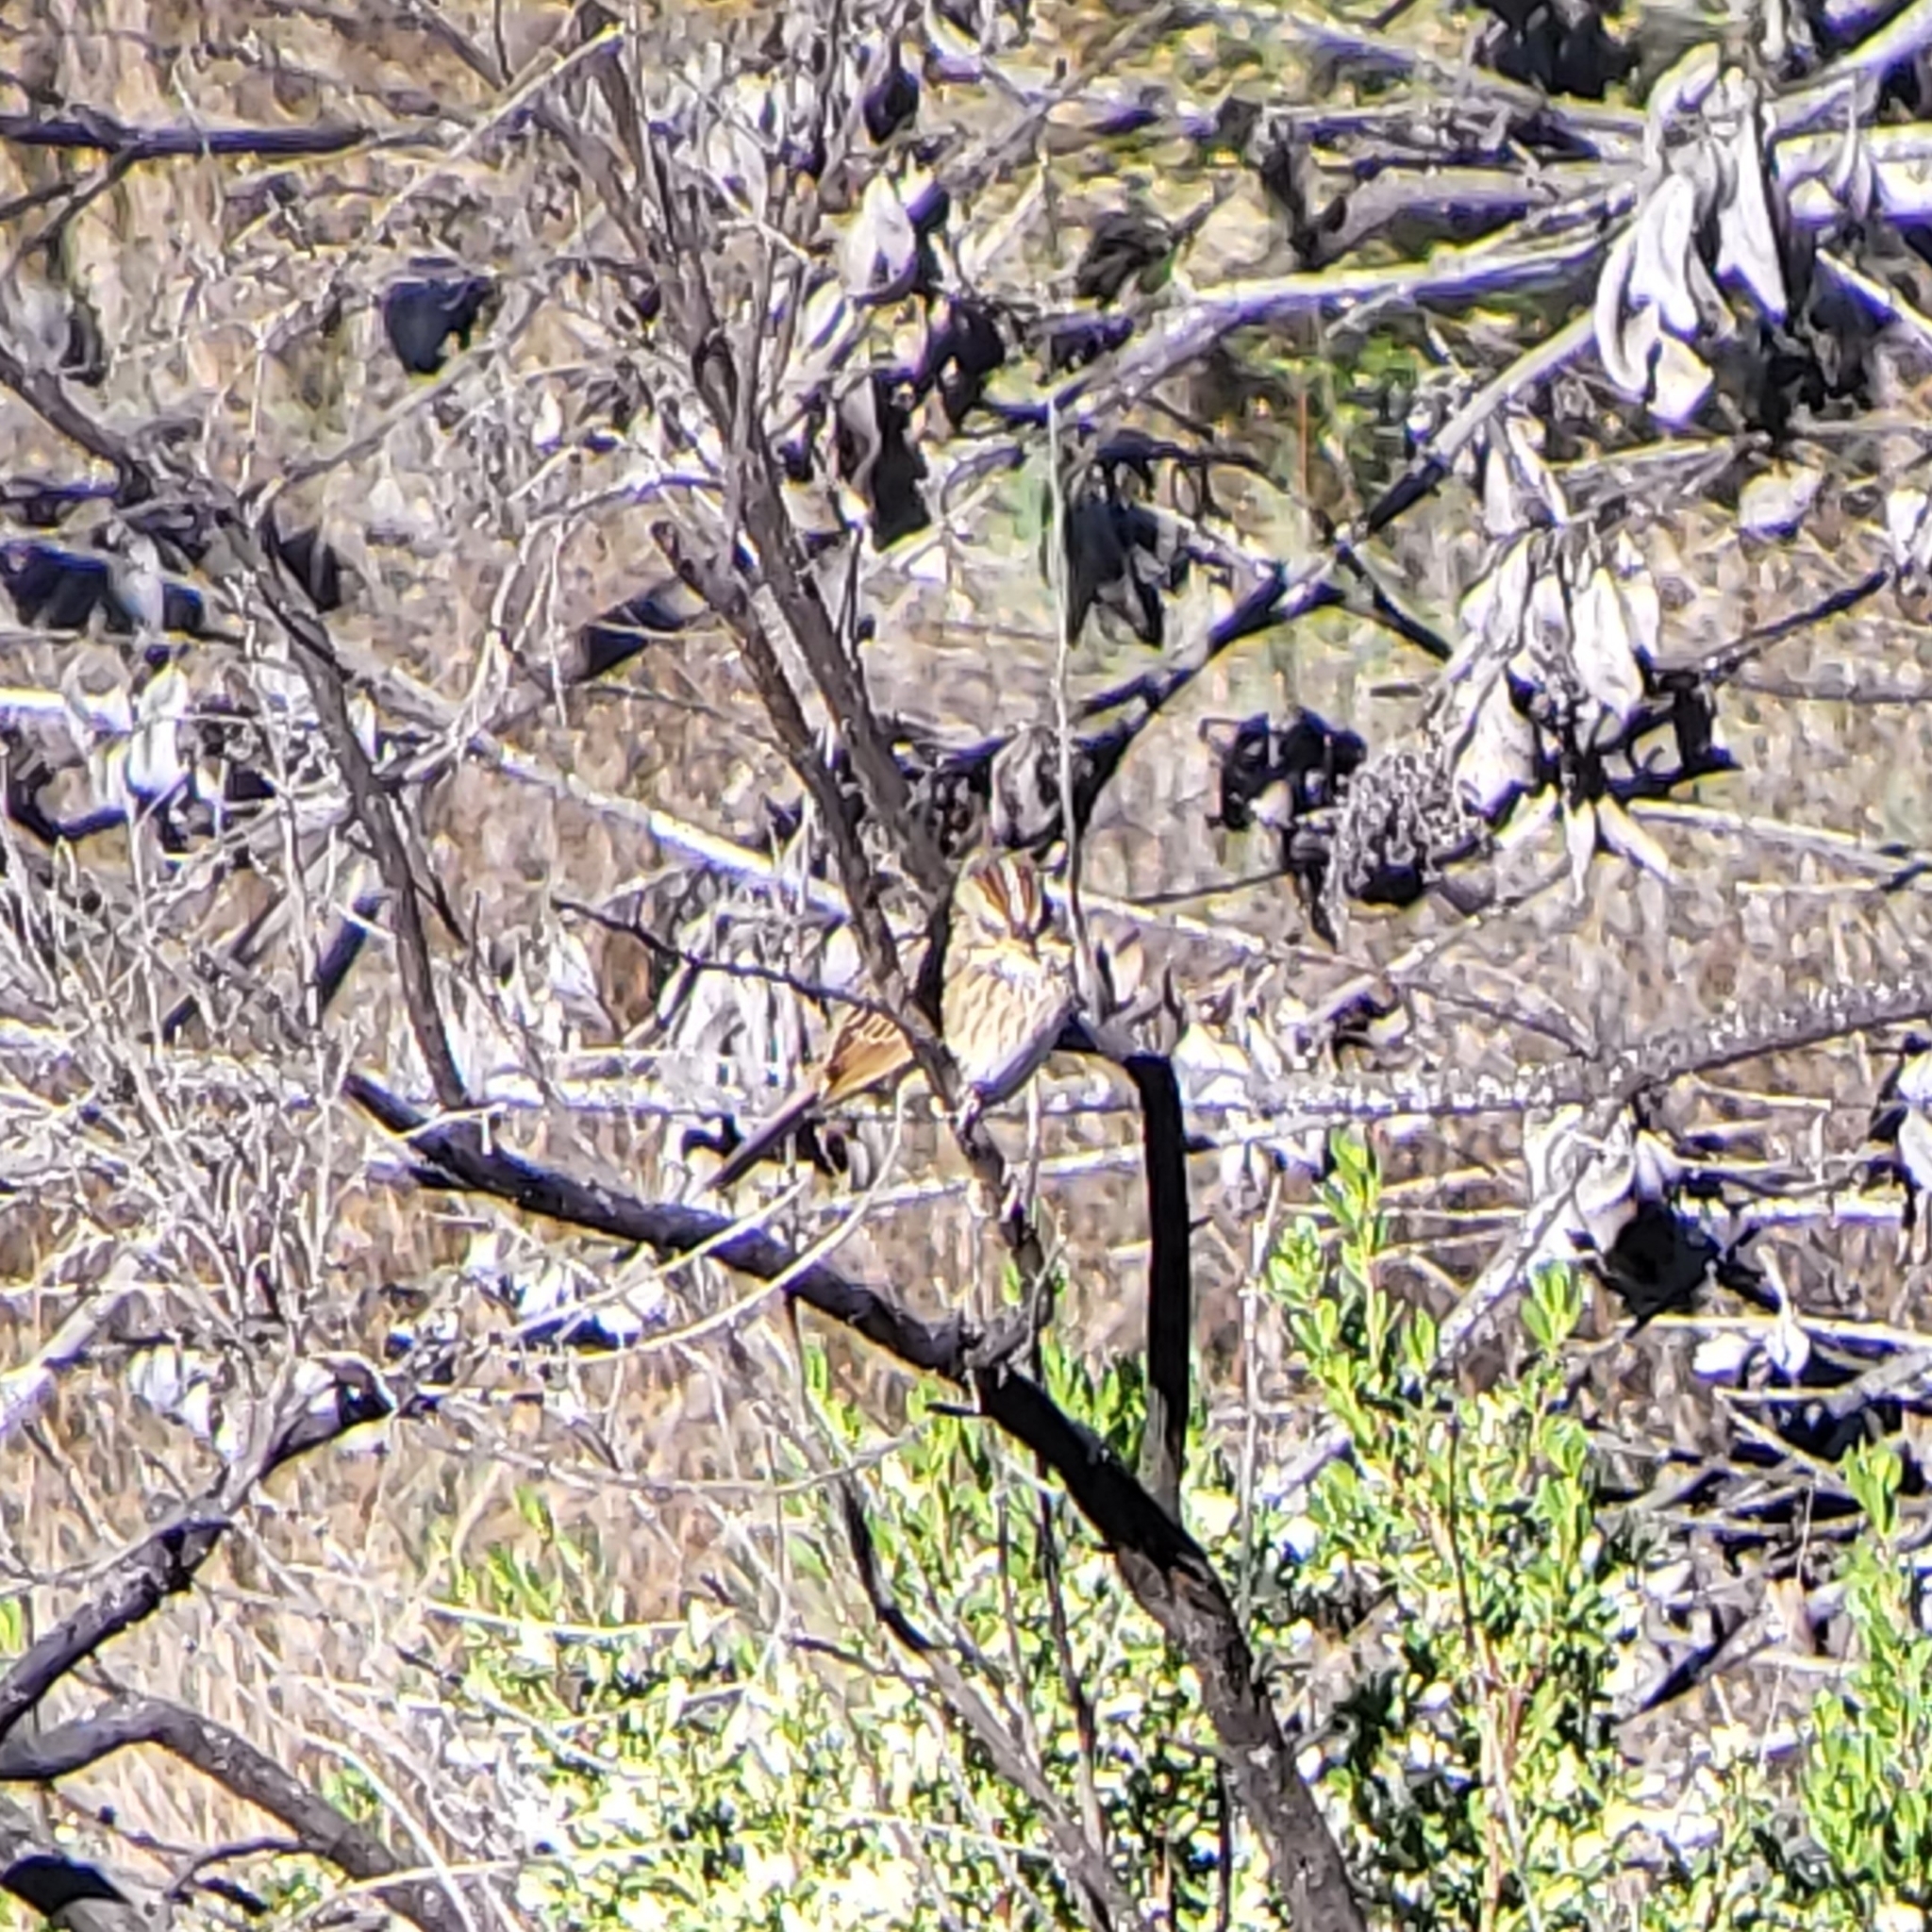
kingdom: Animalia
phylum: Chordata
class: Aves
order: Passeriformes
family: Passerellidae
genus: Melospiza
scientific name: Melospiza lincolnii
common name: Lincoln's sparrow
